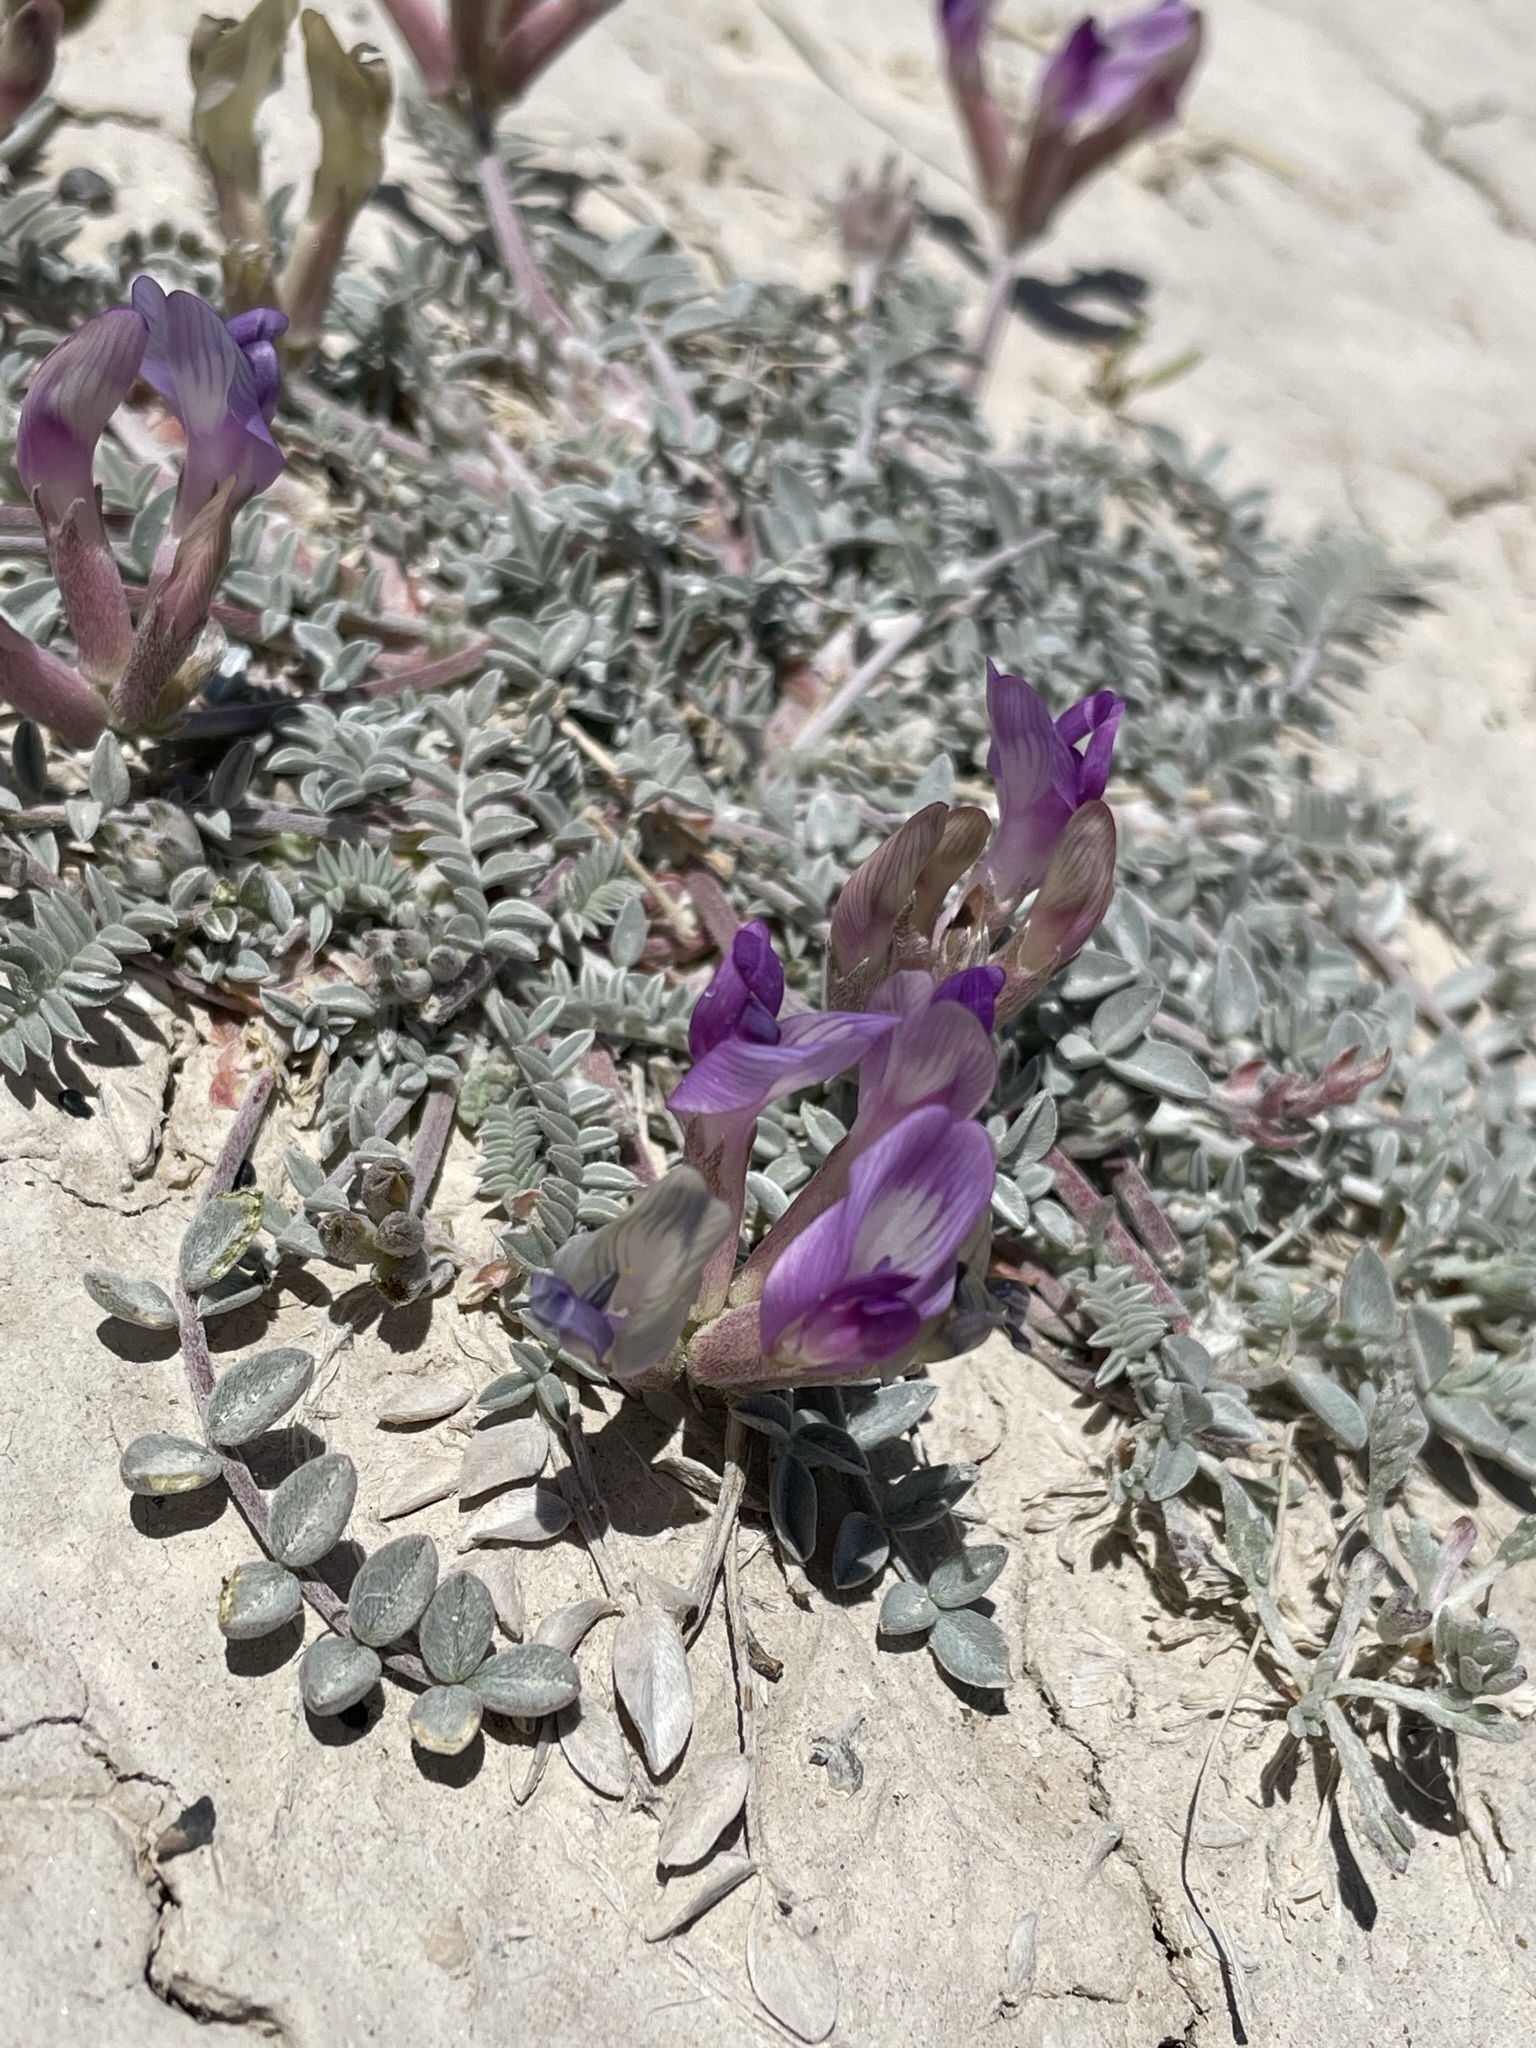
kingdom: Plantae
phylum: Tracheophyta
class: Magnoliopsida
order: Fabales
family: Fabaceae
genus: Astragalus
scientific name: Astragalus argophyllus
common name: Silverleaf milk-vetch
